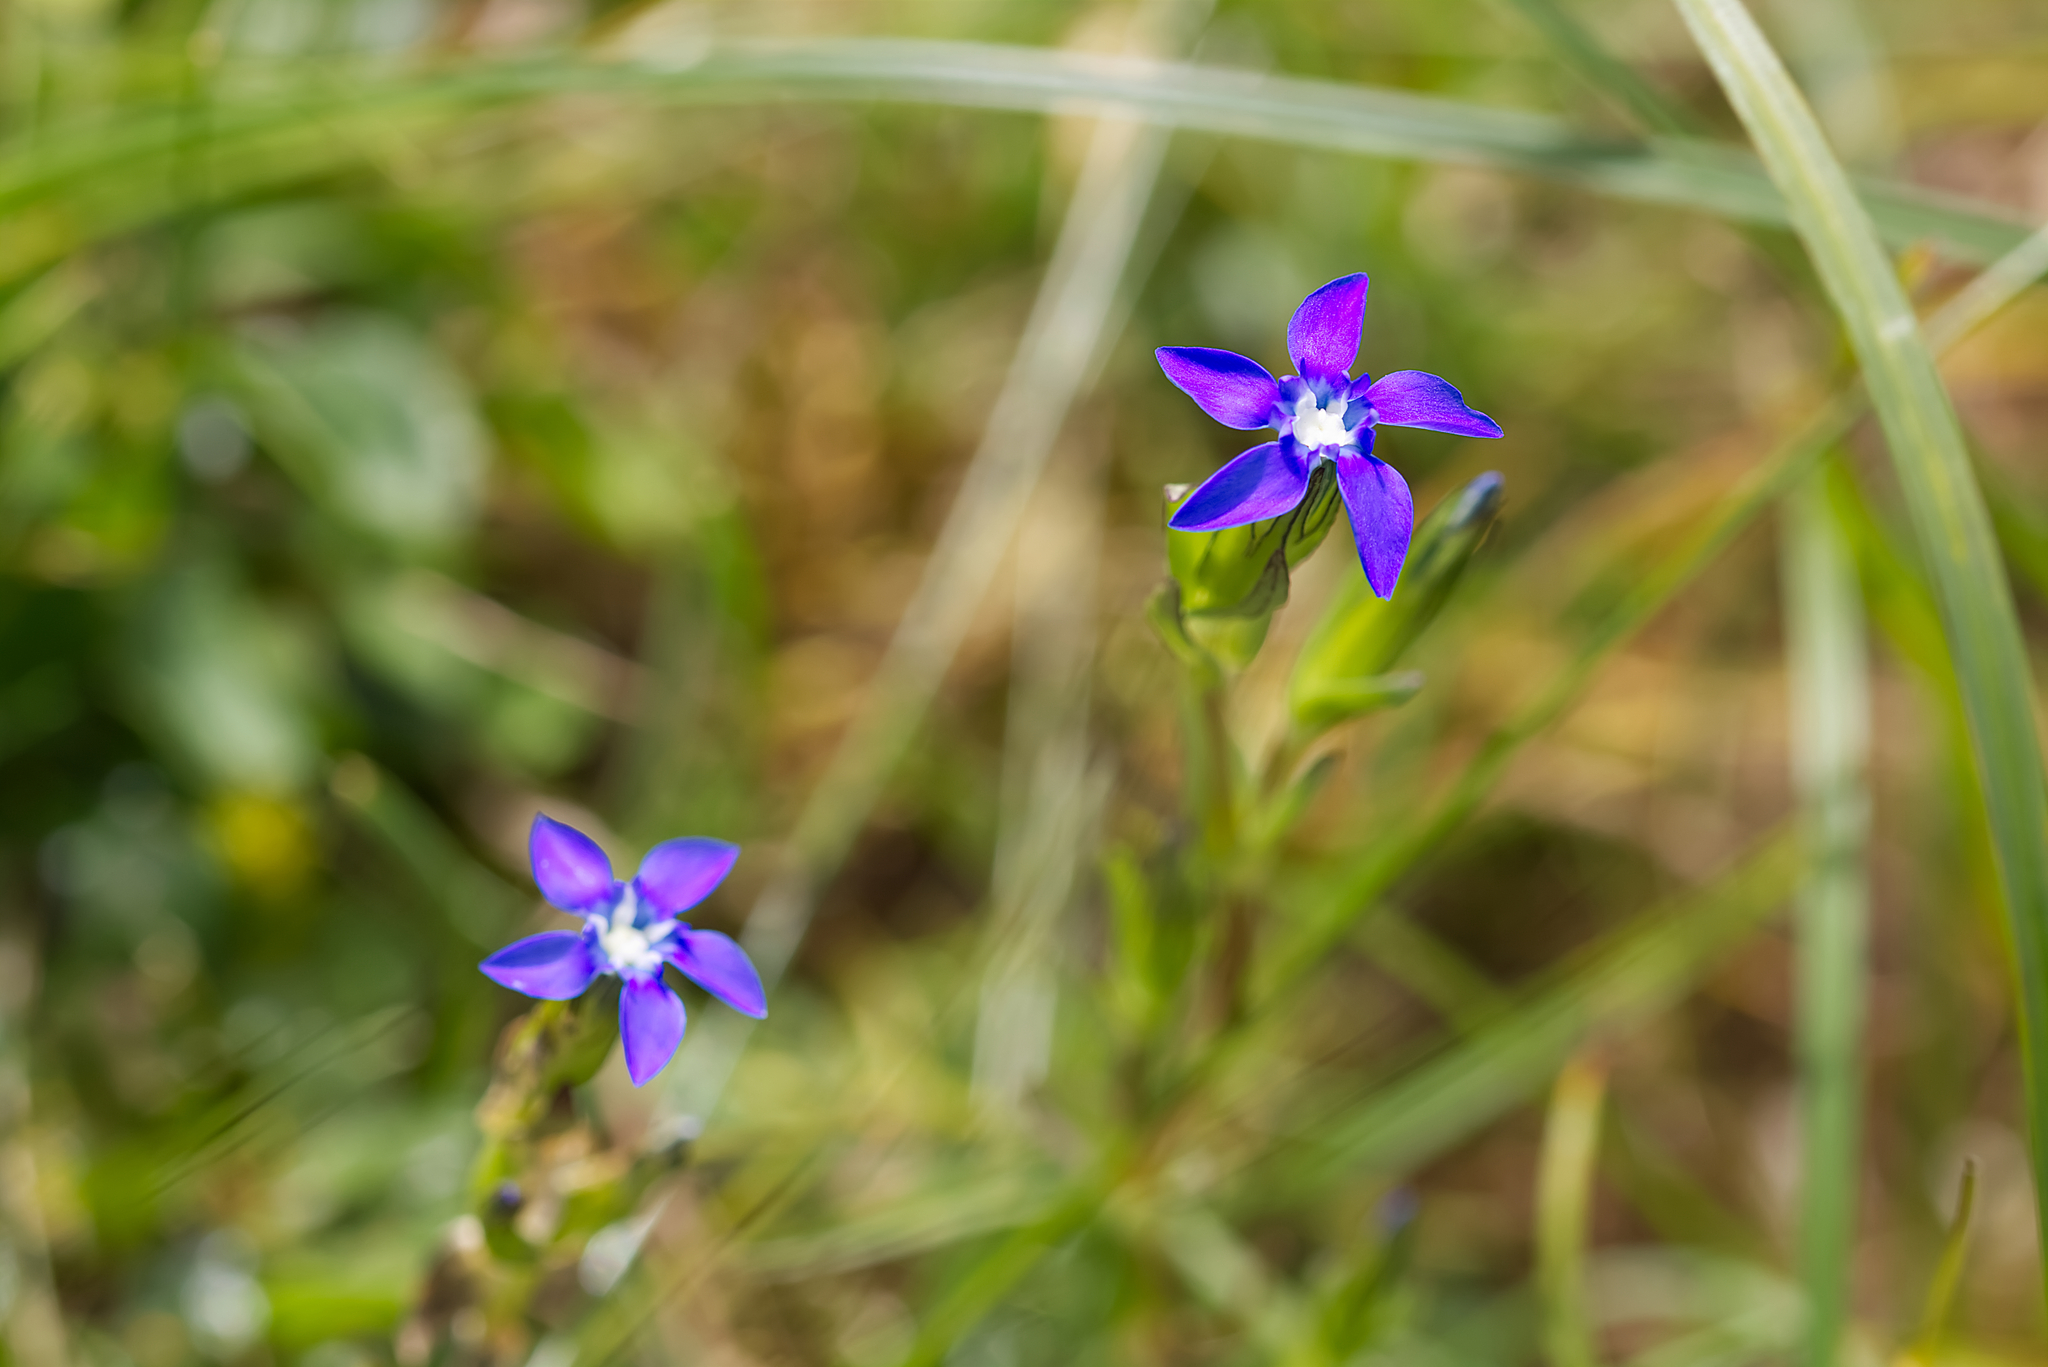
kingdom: Plantae
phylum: Tracheophyta
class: Magnoliopsida
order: Gentianales
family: Gentianaceae
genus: Gentiana
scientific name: Gentiana nivalis
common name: Alpine gentian
